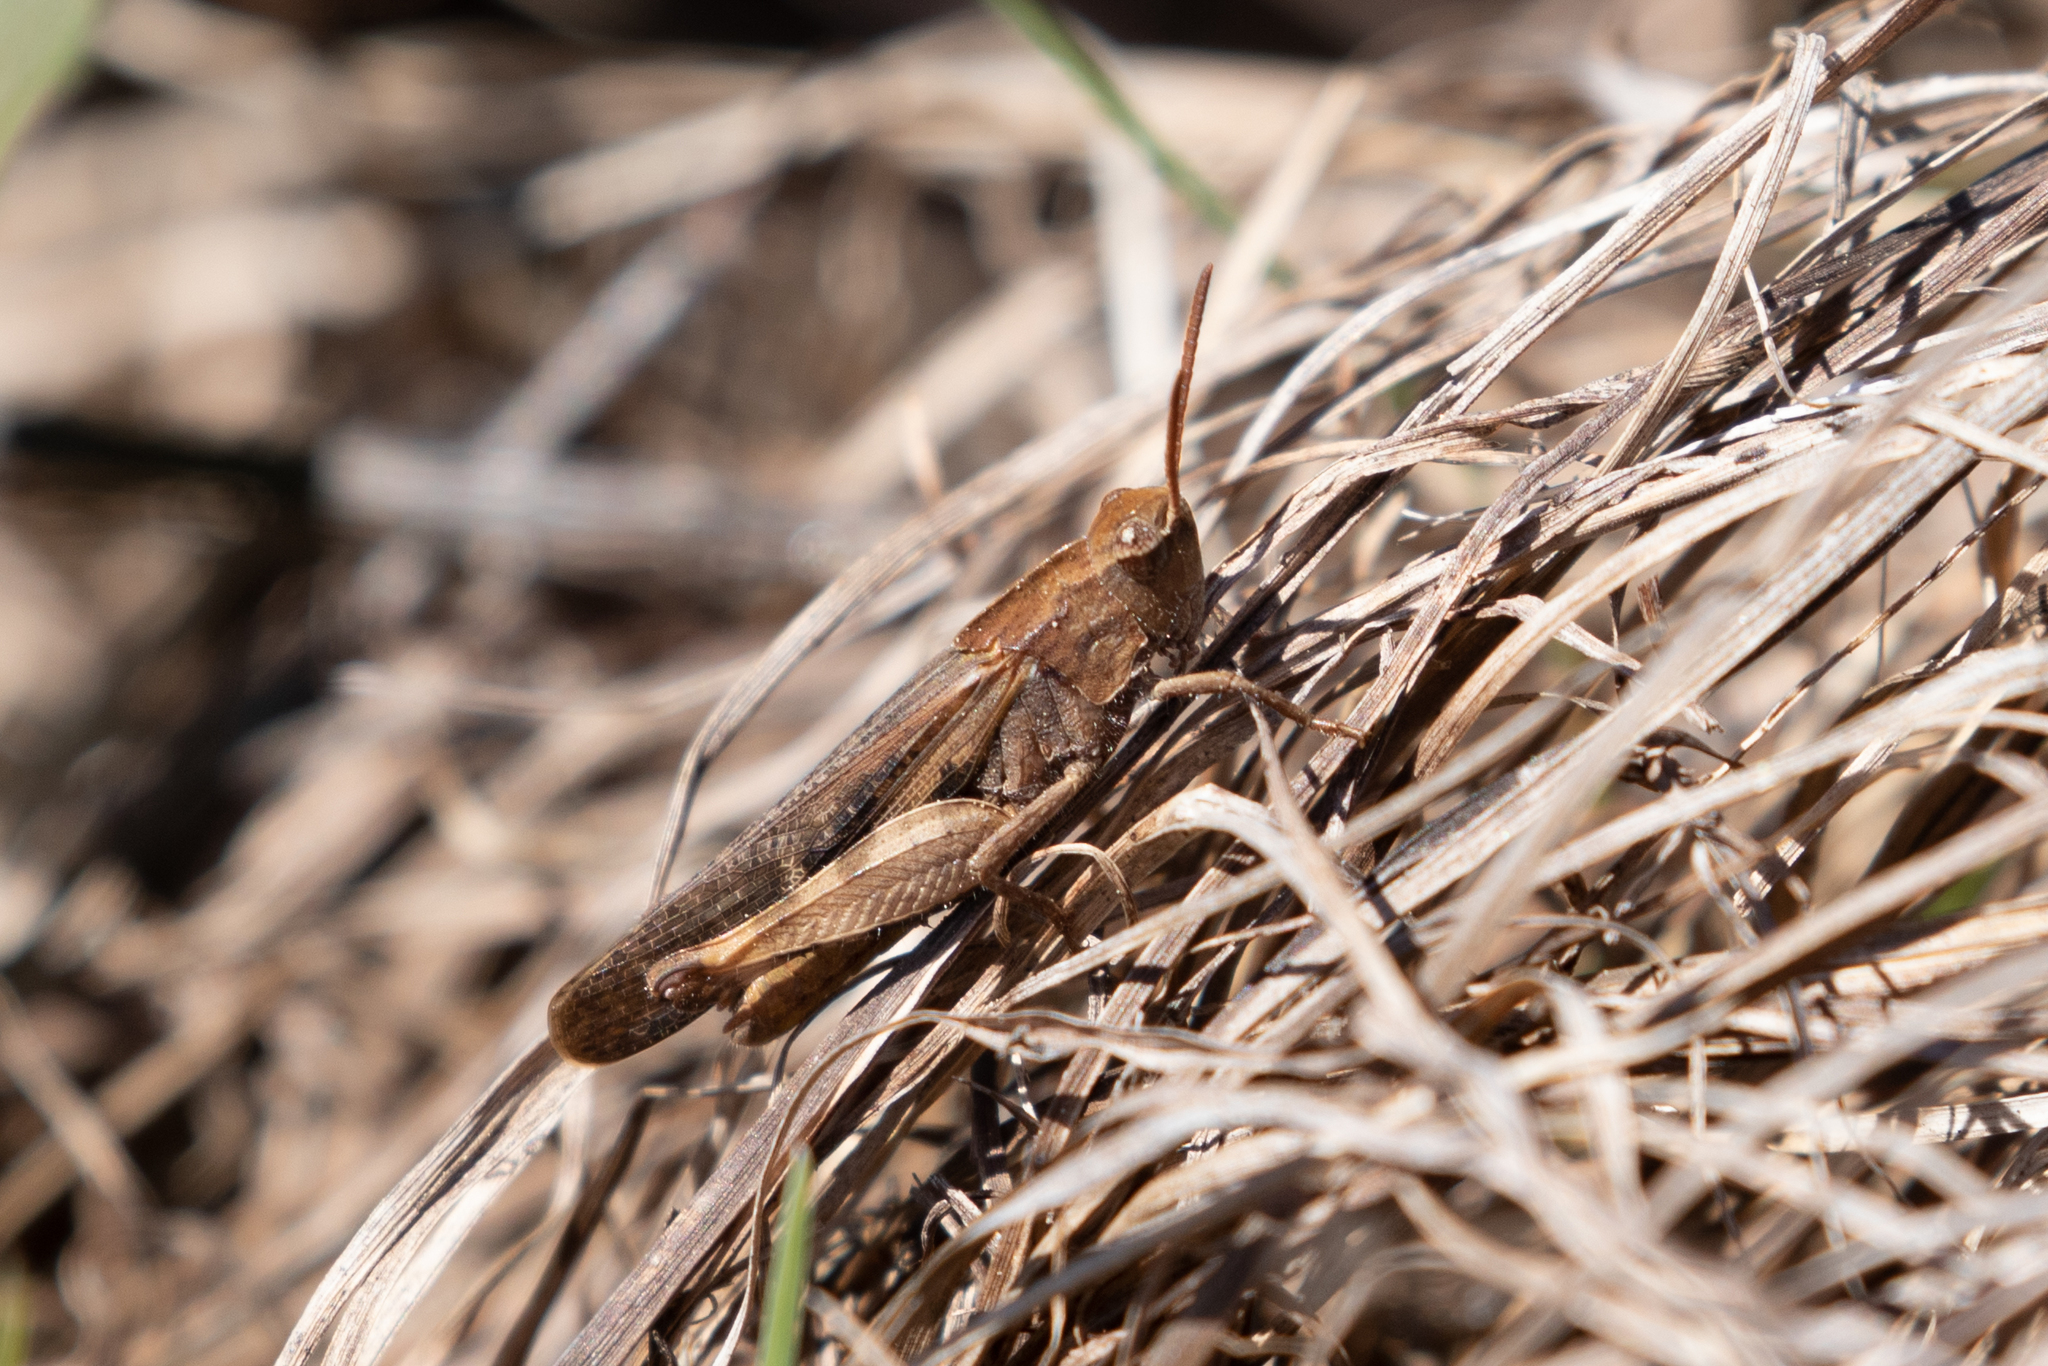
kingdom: Animalia
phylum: Arthropoda
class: Insecta
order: Orthoptera
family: Acrididae
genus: Chortophaga
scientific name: Chortophaga viridifasciata
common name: Green-striped grasshopper
